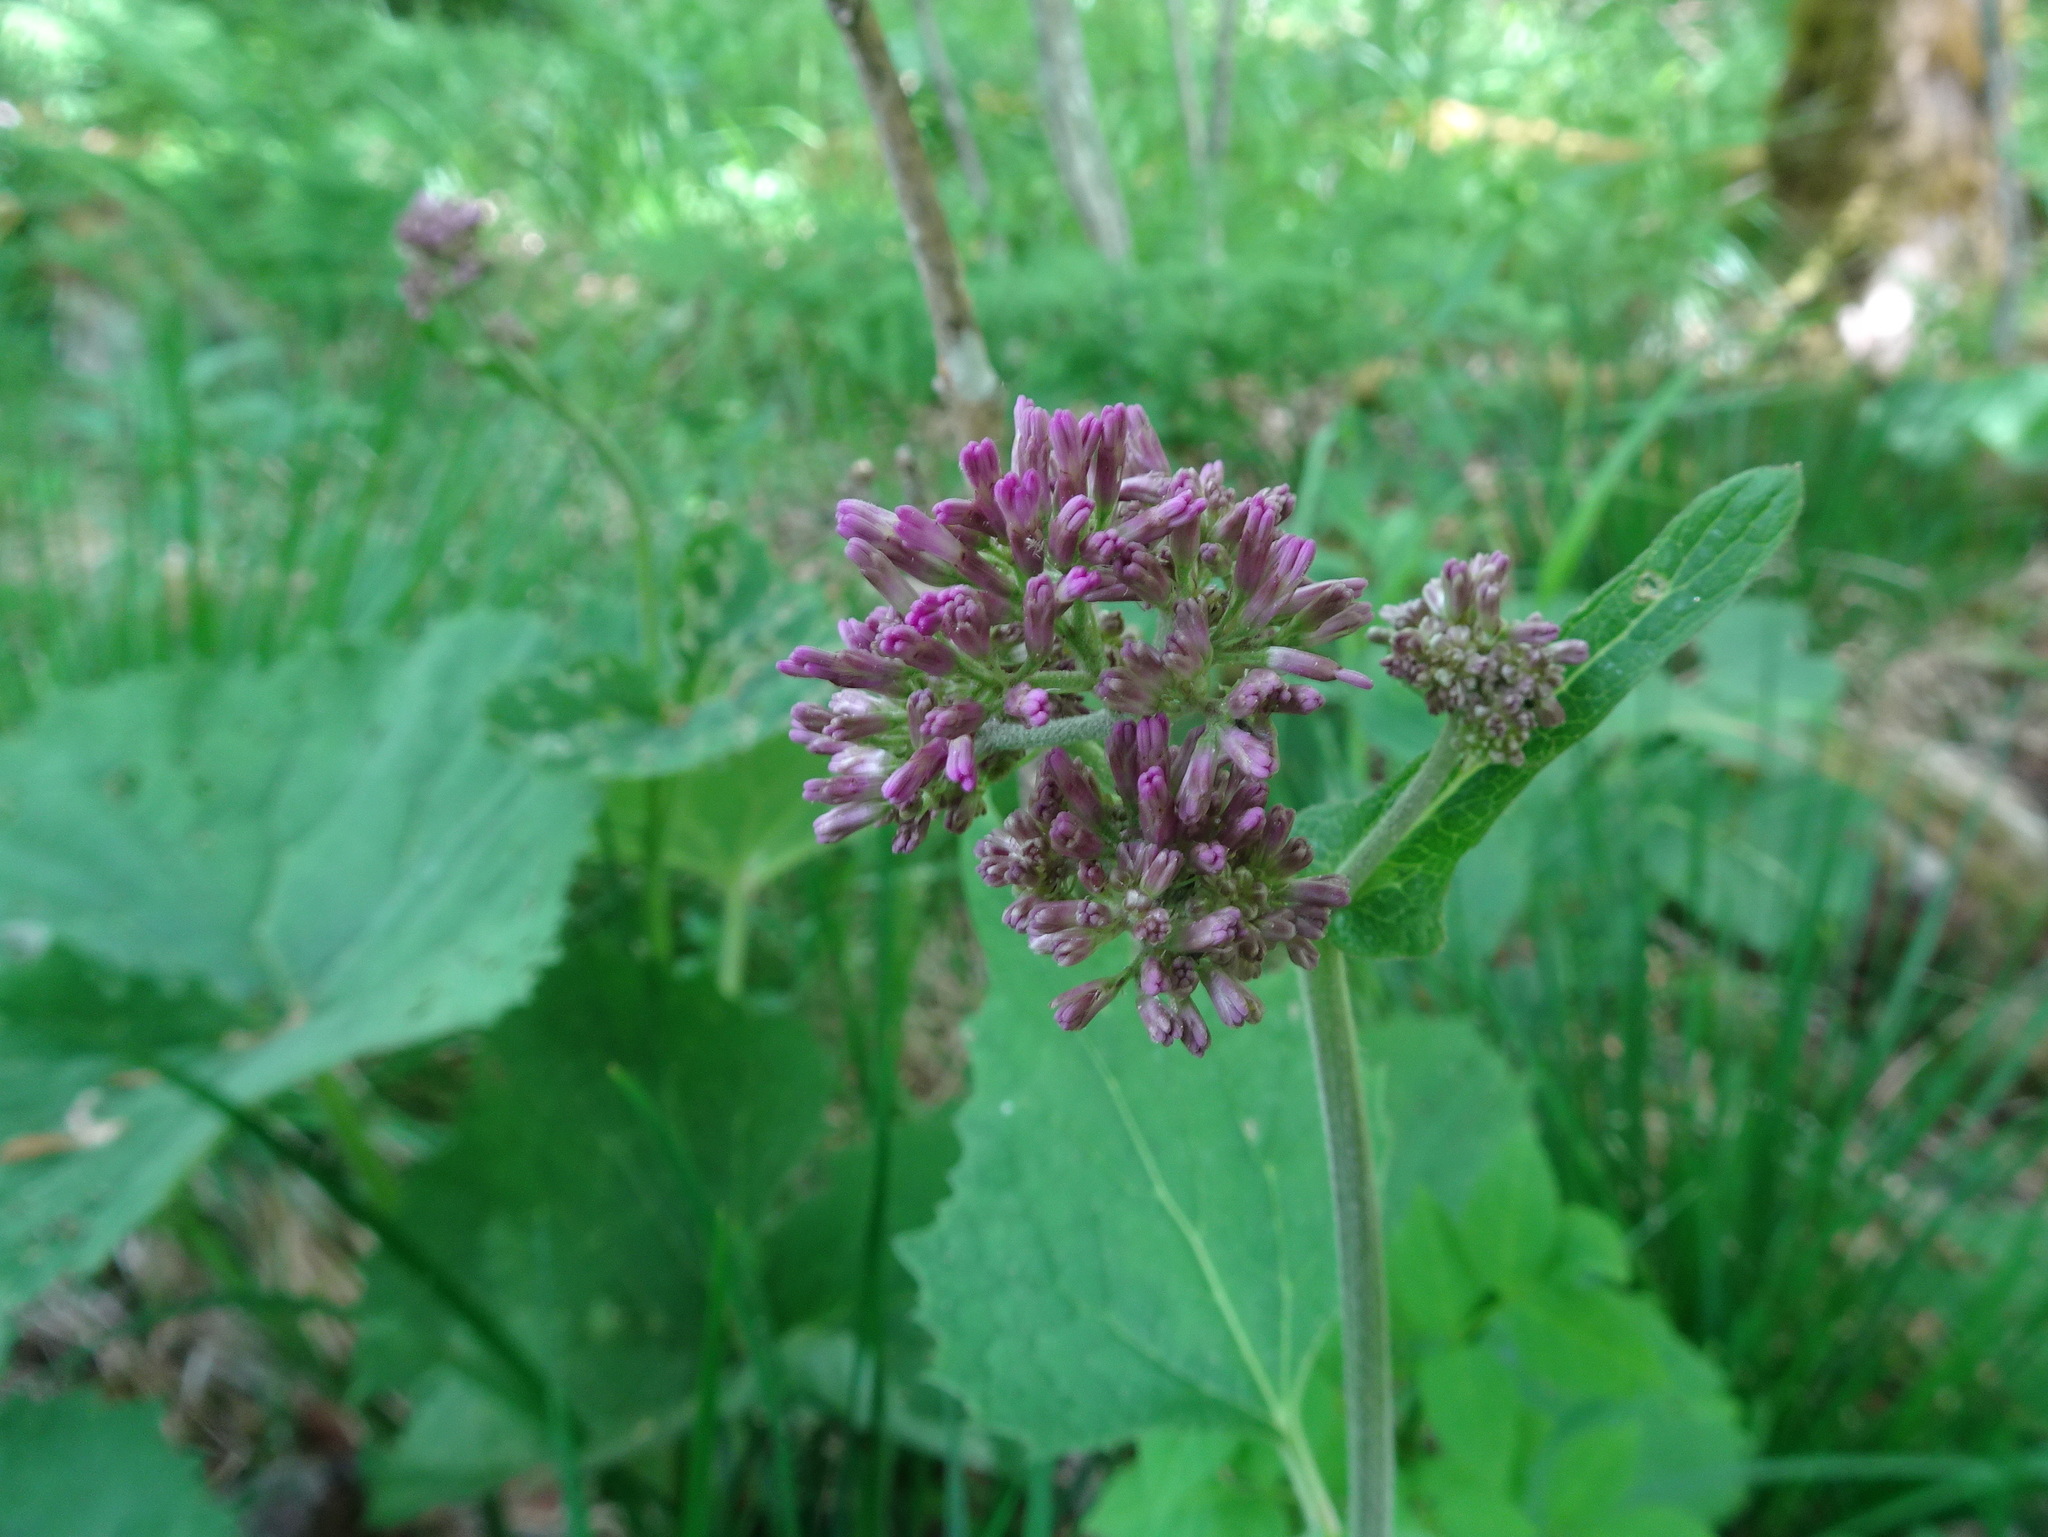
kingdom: Plantae
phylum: Tracheophyta
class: Magnoliopsida
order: Asterales
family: Asteraceae
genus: Adenostyles
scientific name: Adenostyles alliariae
